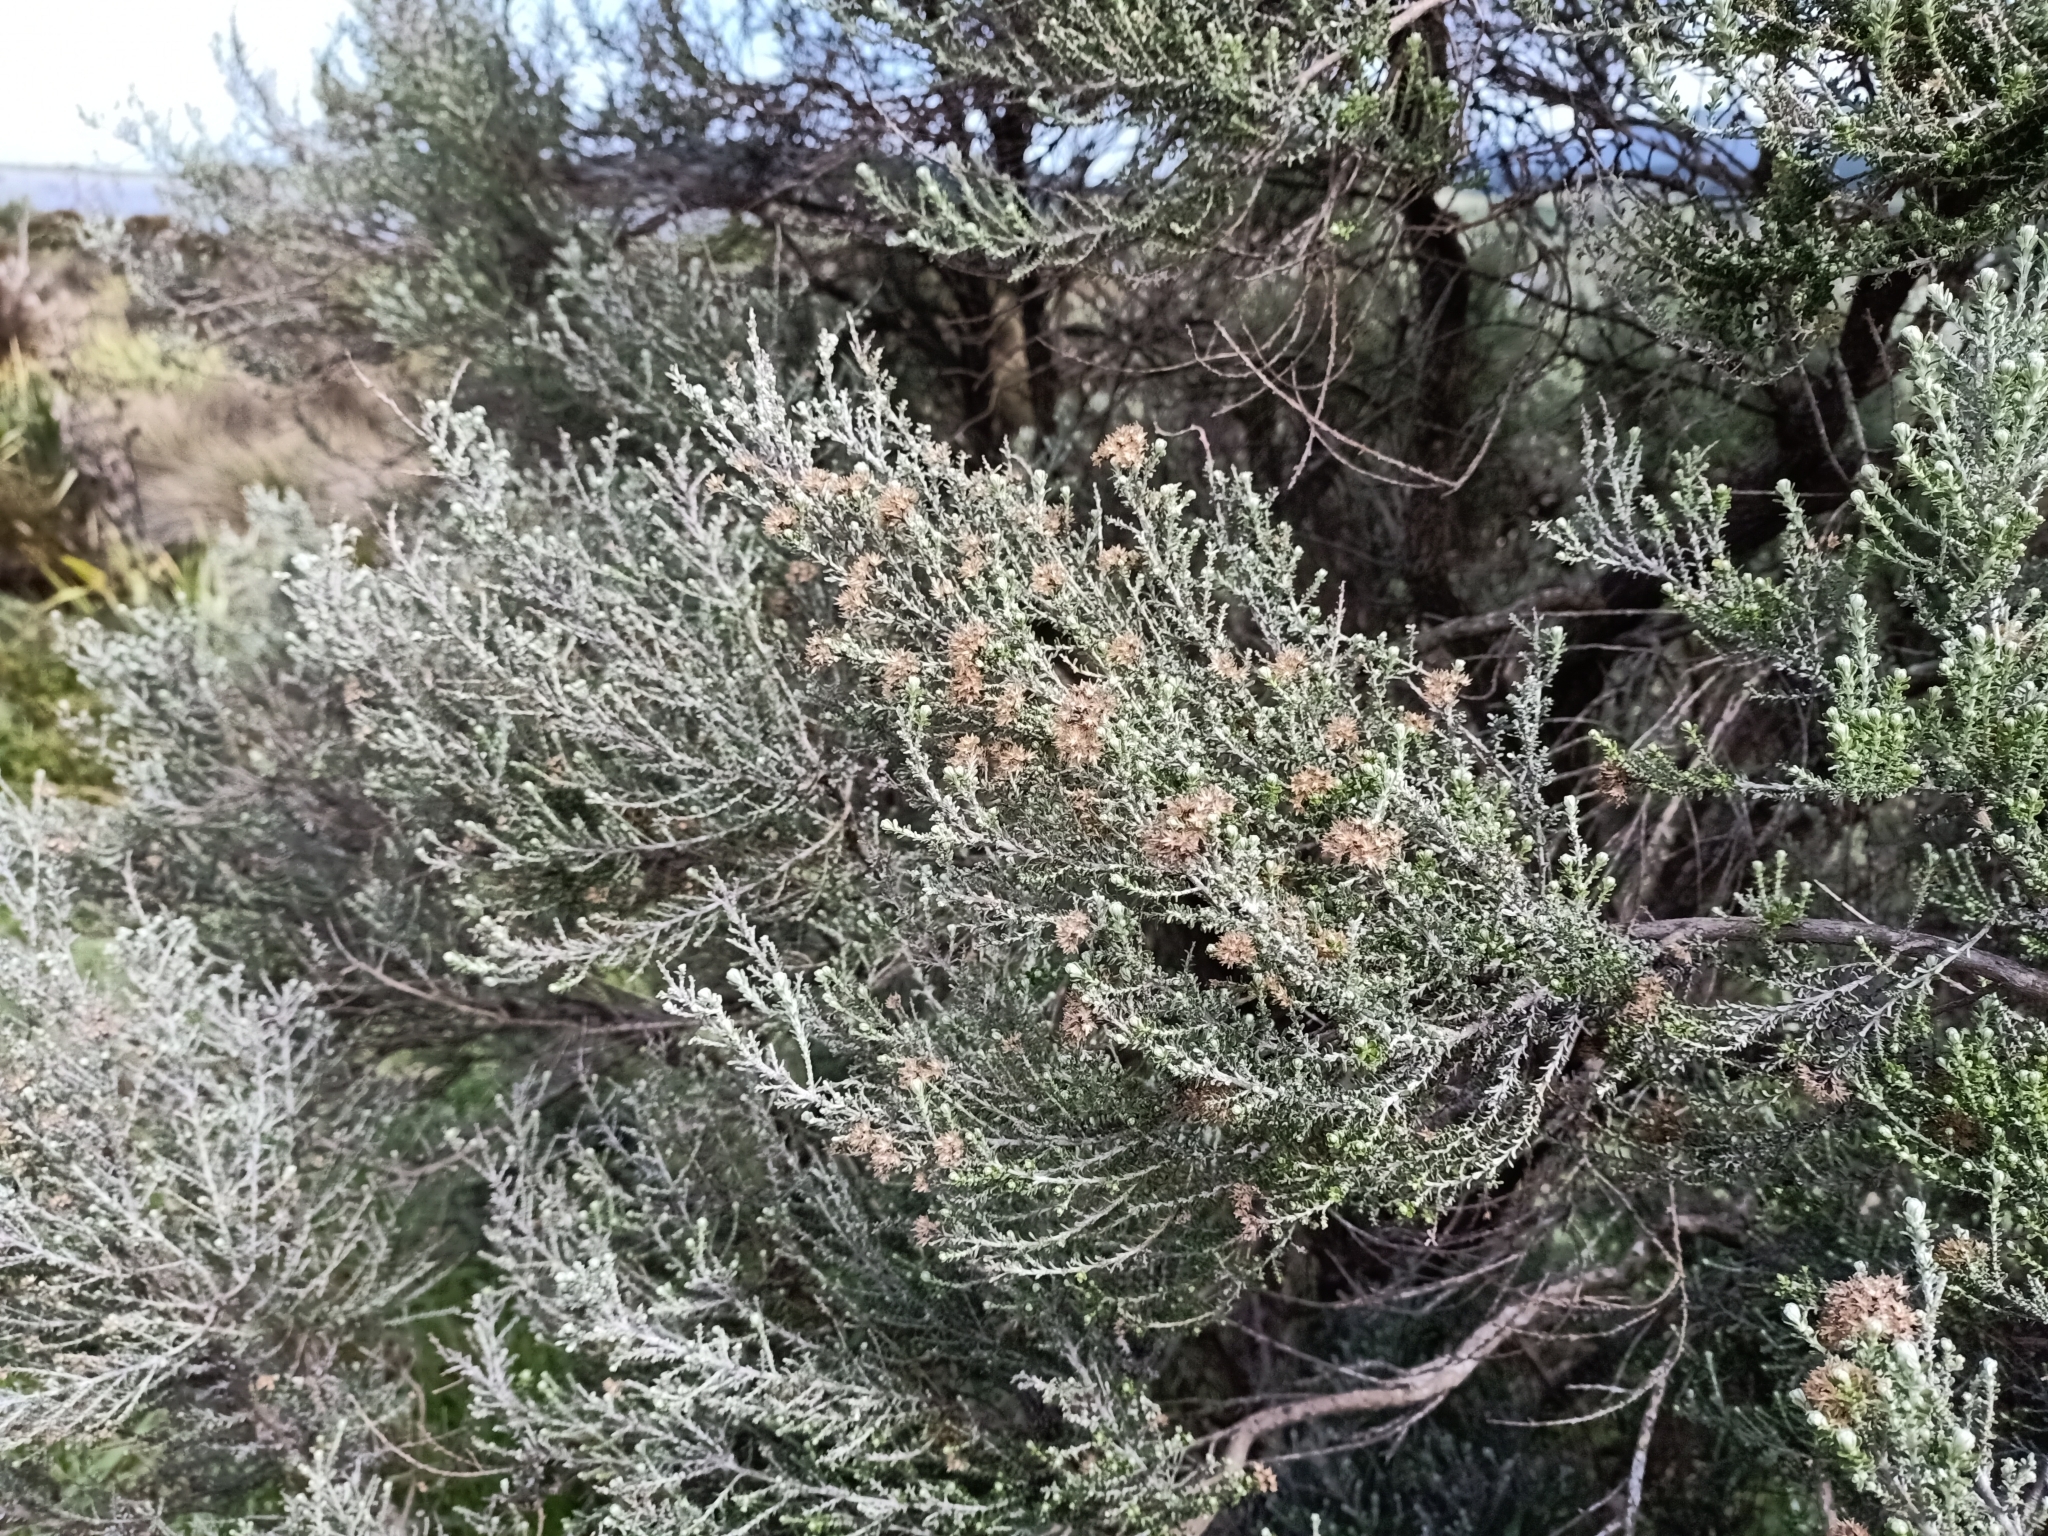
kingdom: Plantae
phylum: Tracheophyta
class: Magnoliopsida
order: Asterales
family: Asteraceae
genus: Ozothamnus
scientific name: Ozothamnus leptophyllus
